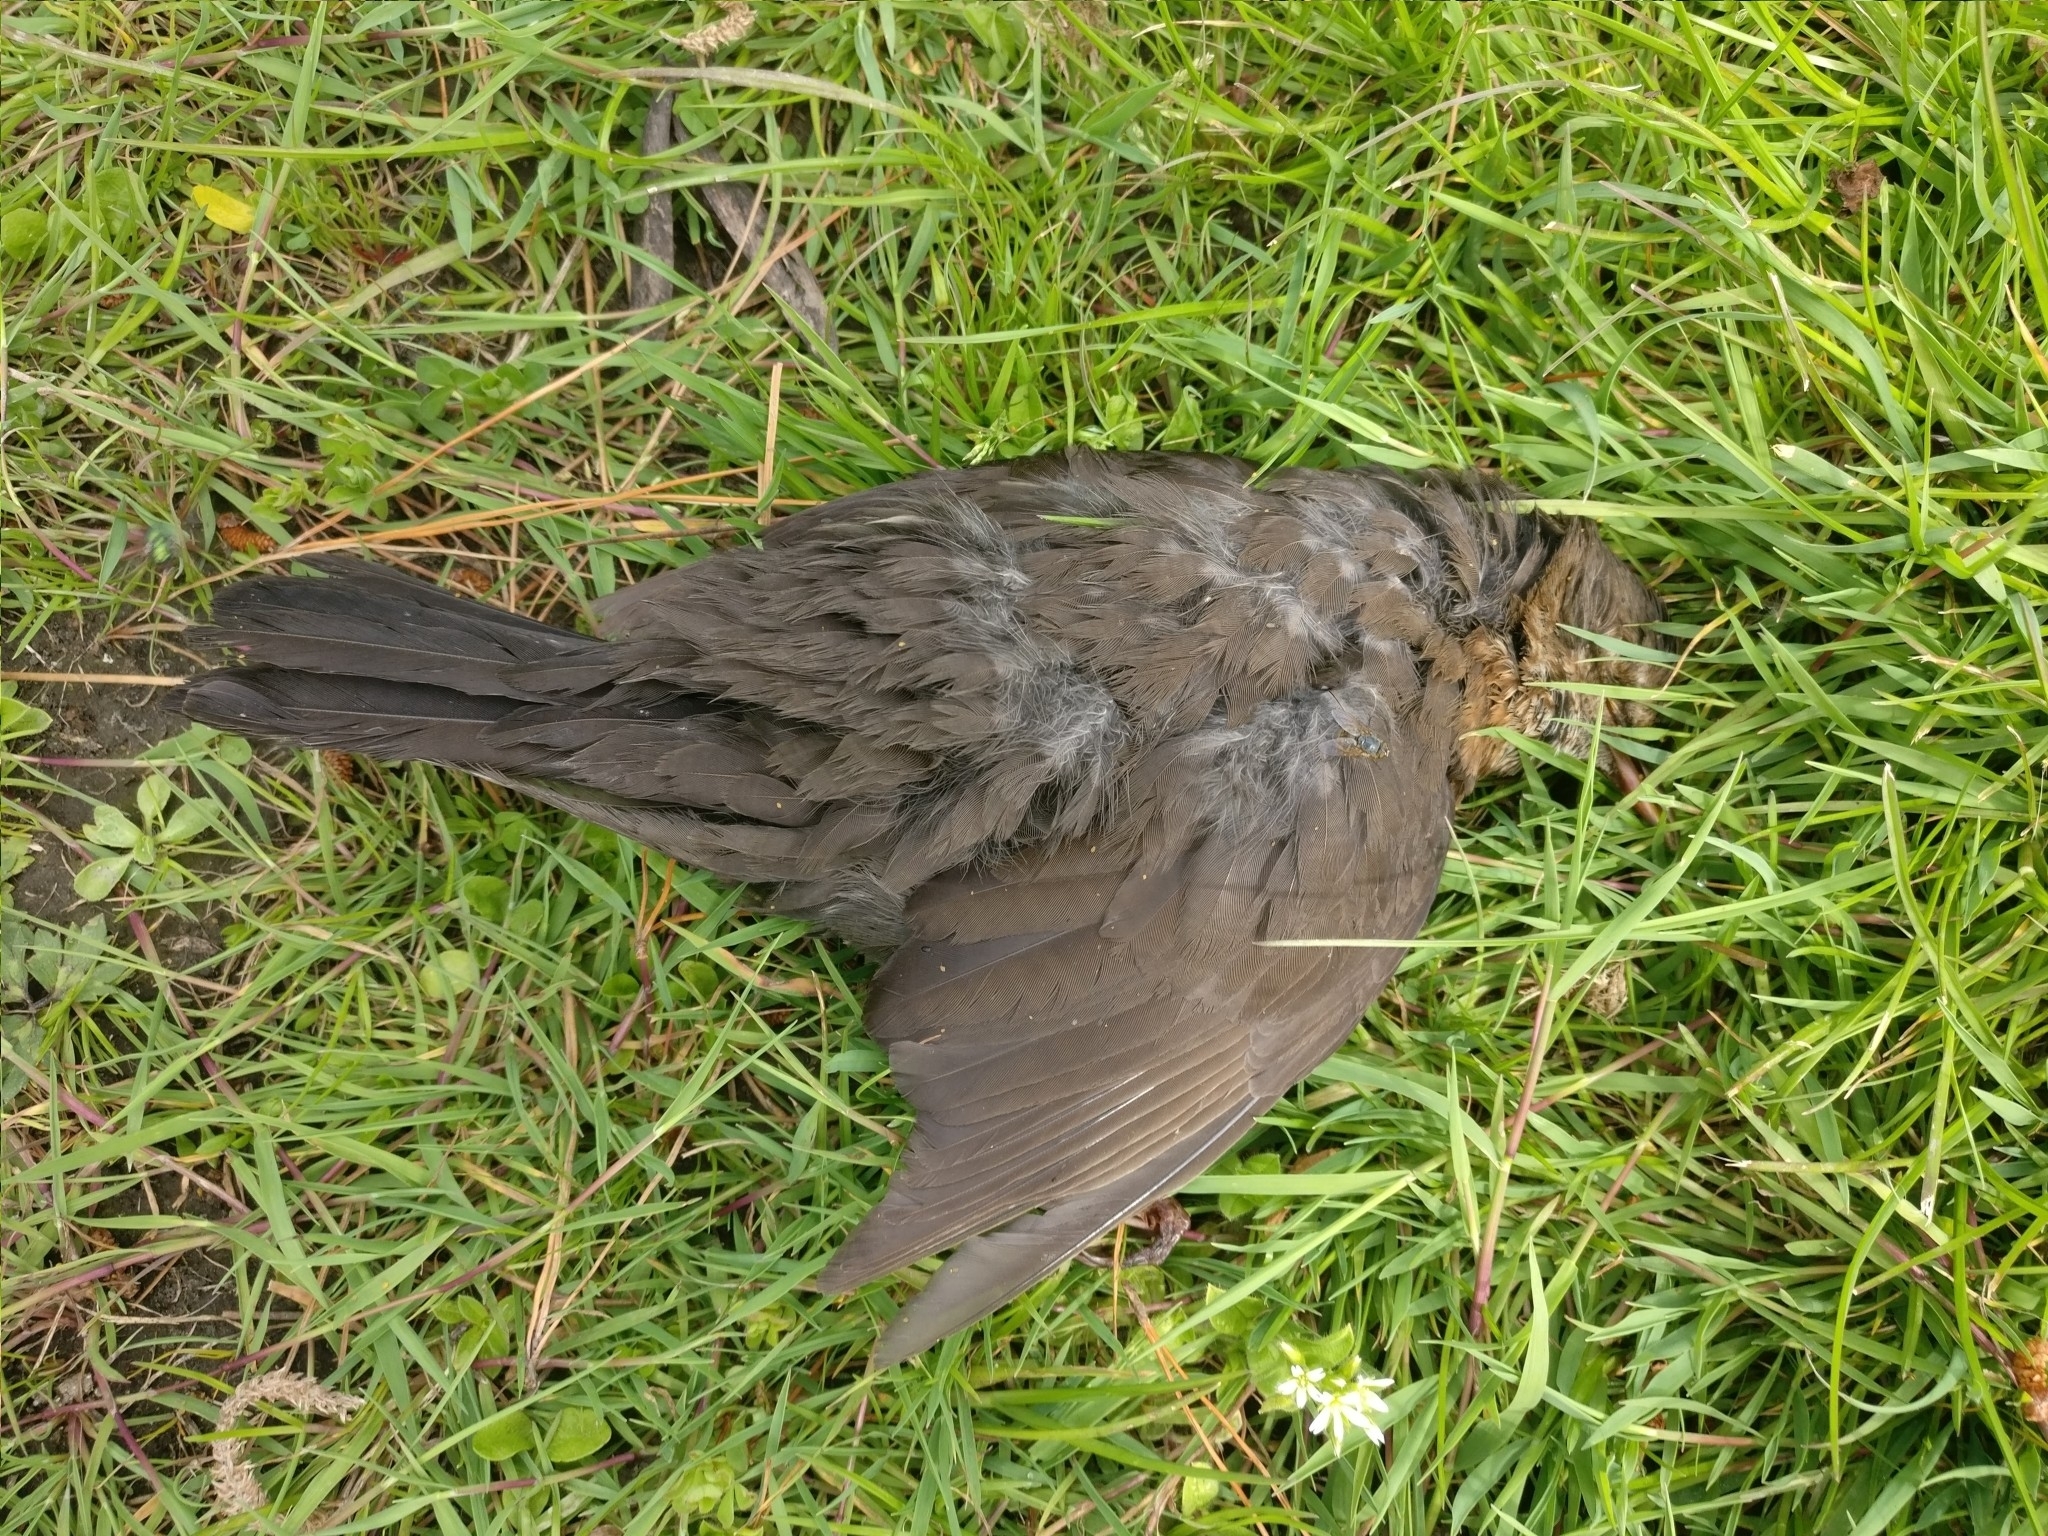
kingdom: Animalia
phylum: Chordata
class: Aves
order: Passeriformes
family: Turdidae
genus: Turdus
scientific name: Turdus merula
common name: Common blackbird
